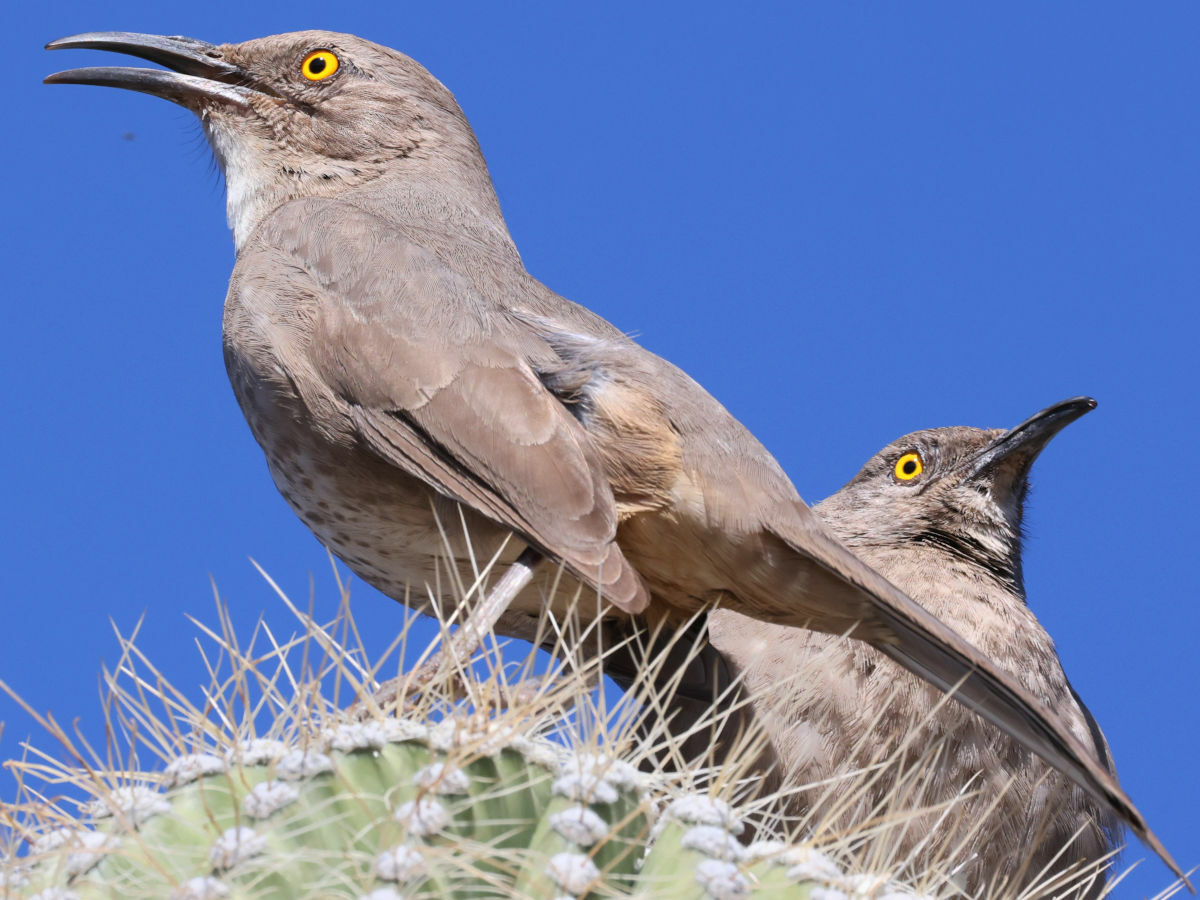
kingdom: Animalia
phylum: Chordata
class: Aves
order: Passeriformes
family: Mimidae
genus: Toxostoma
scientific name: Toxostoma curvirostre
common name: Curve-billed thrasher
